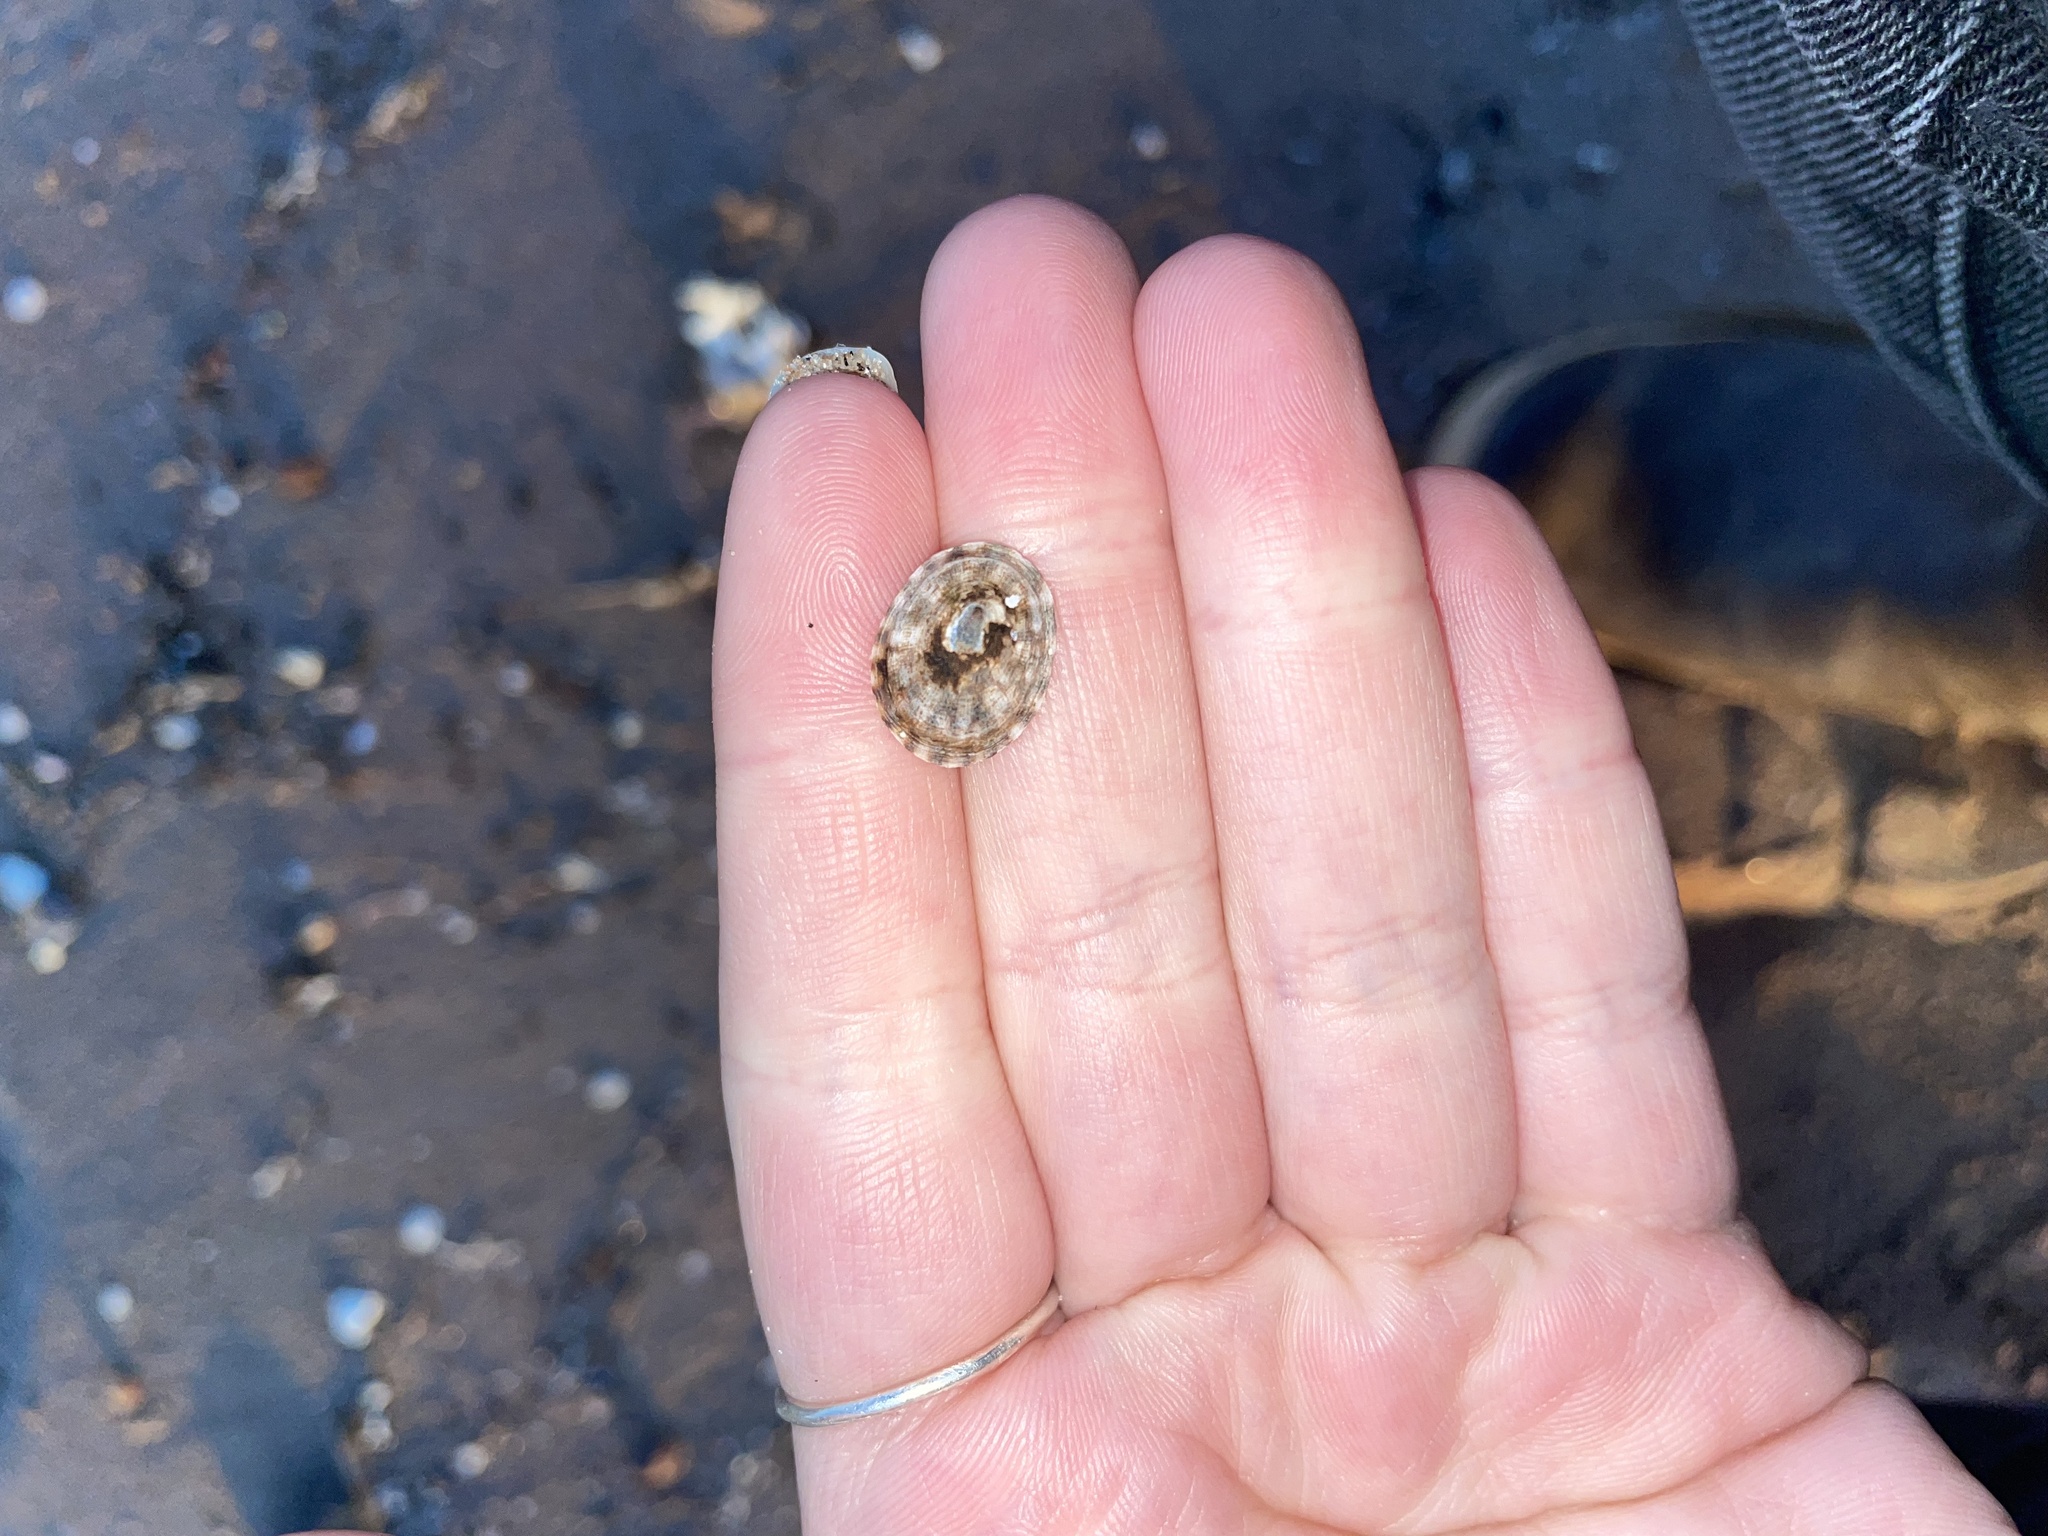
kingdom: Animalia
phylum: Mollusca
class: Gastropoda
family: Lottiidae
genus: Testudinalia
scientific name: Testudinalia testudinalis
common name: Common tortoiseshell limpet
